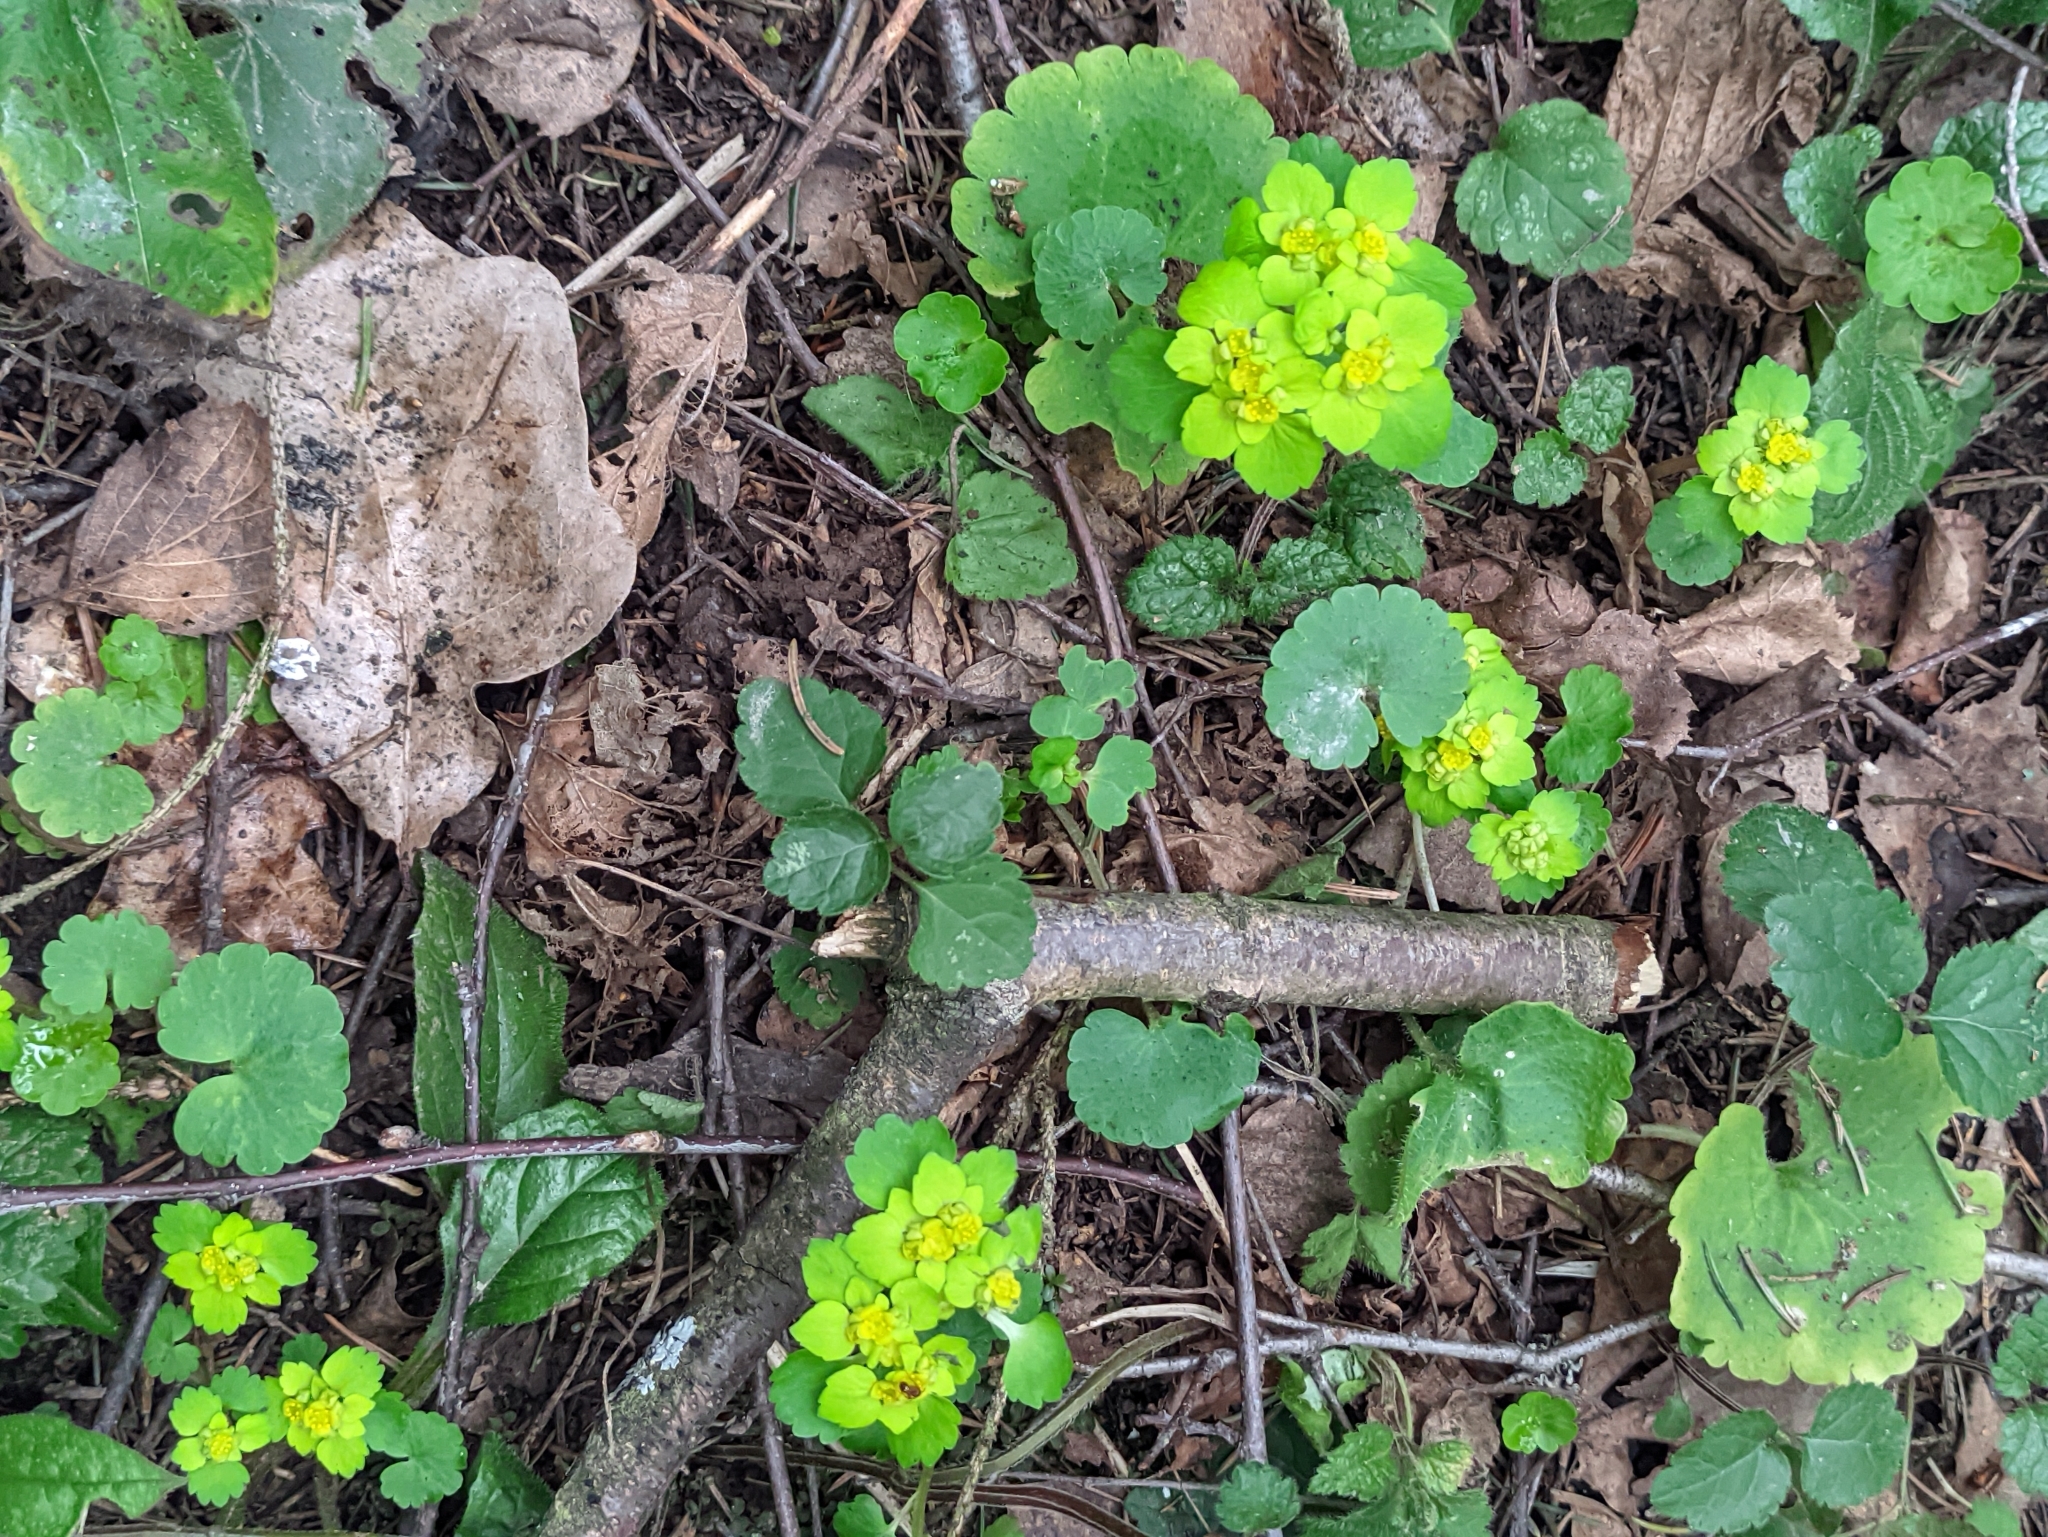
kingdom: Plantae
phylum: Tracheophyta
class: Magnoliopsida
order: Saxifragales
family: Saxifragaceae
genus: Chrysosplenium
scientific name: Chrysosplenium alternifolium
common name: Alternate-leaved golden-saxifrage
